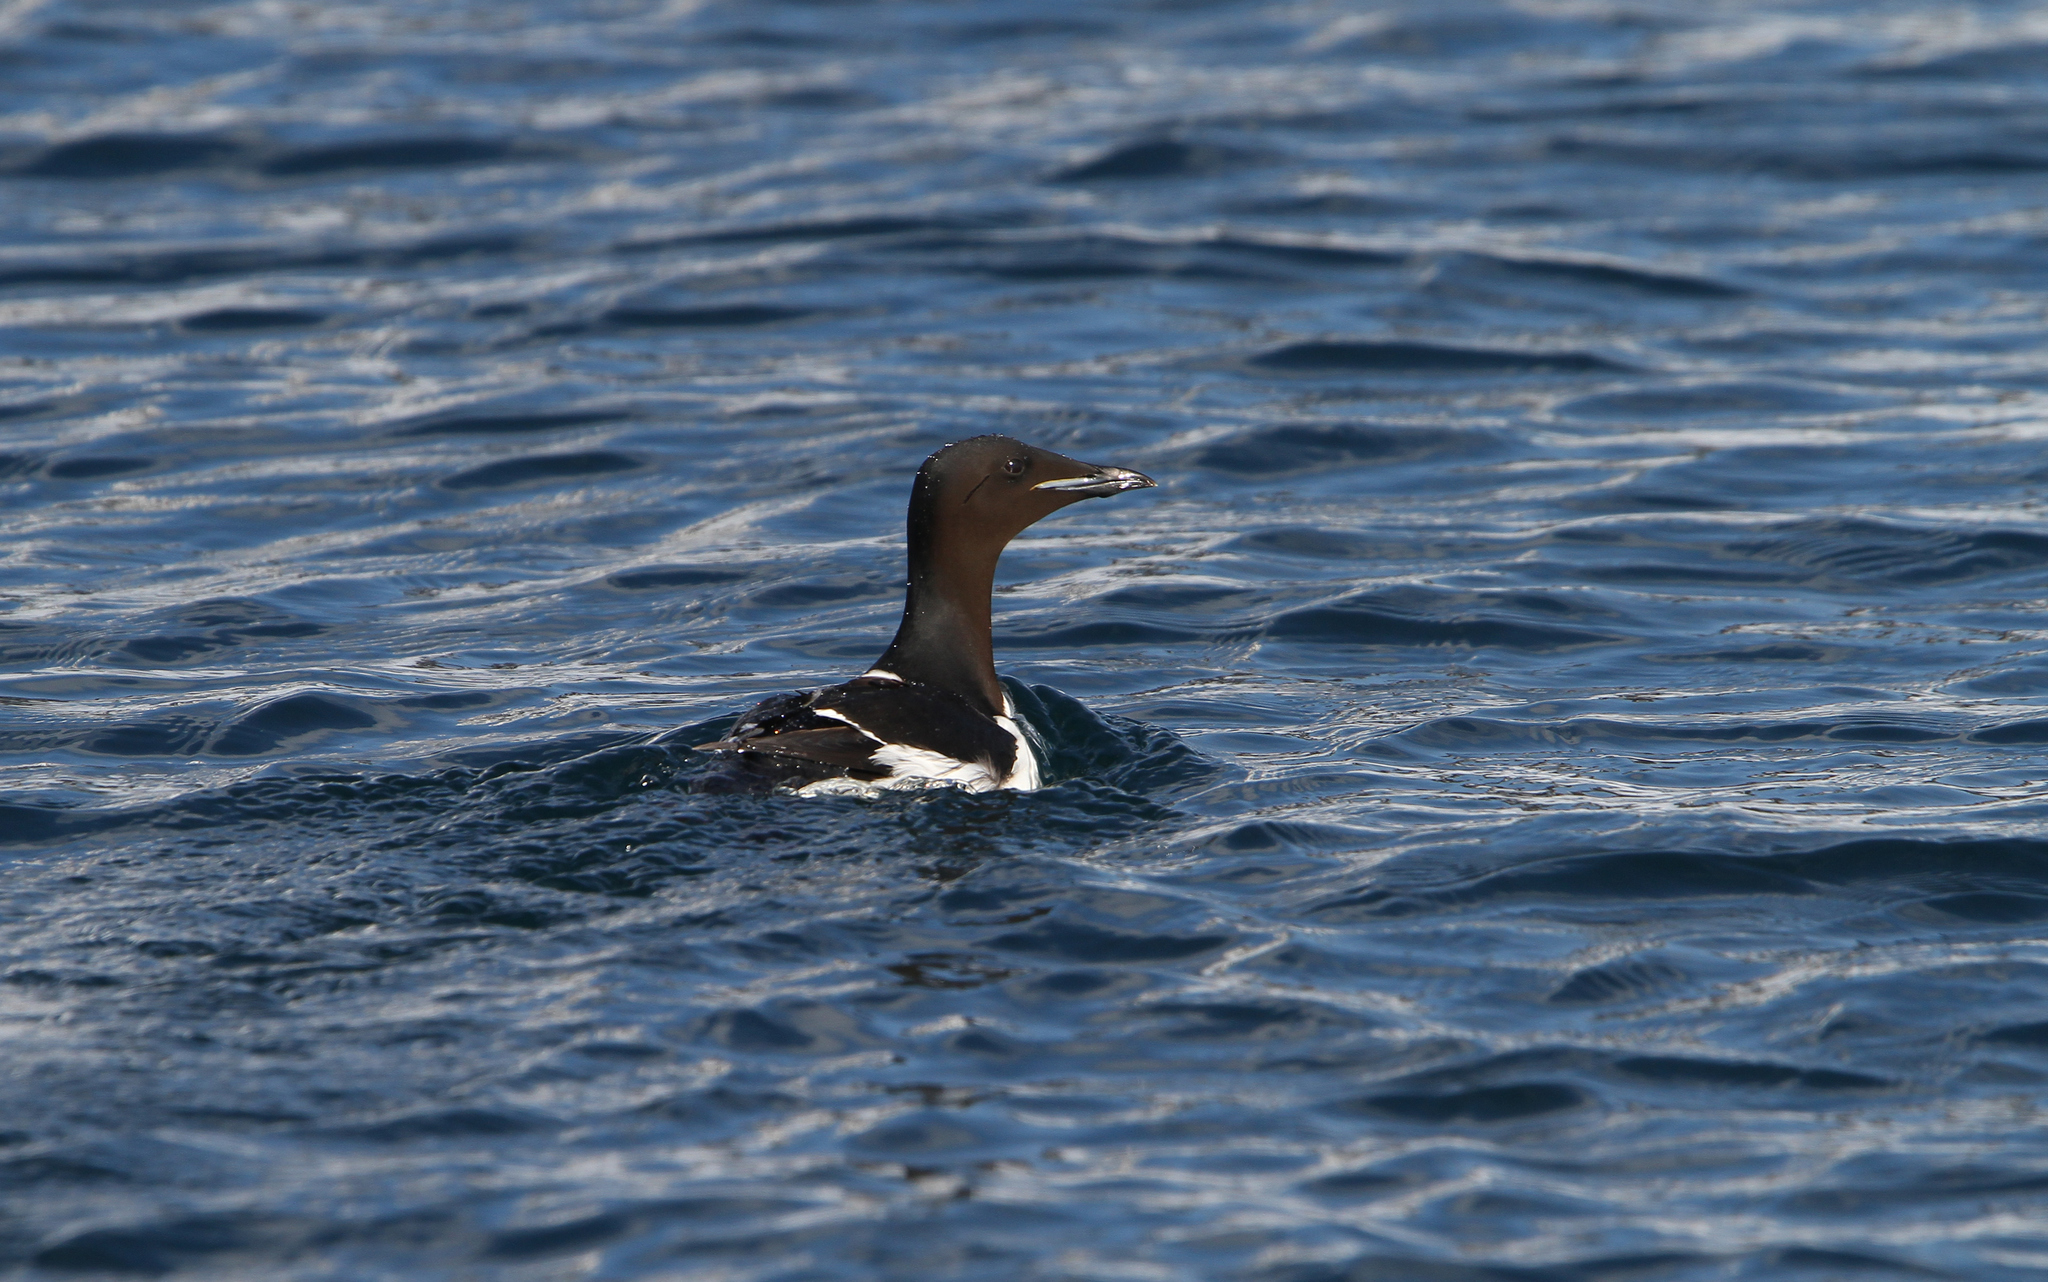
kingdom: Animalia
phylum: Chordata
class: Aves
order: Charadriiformes
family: Alcidae
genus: Uria
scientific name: Uria lomvia
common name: Thick-billed murre
